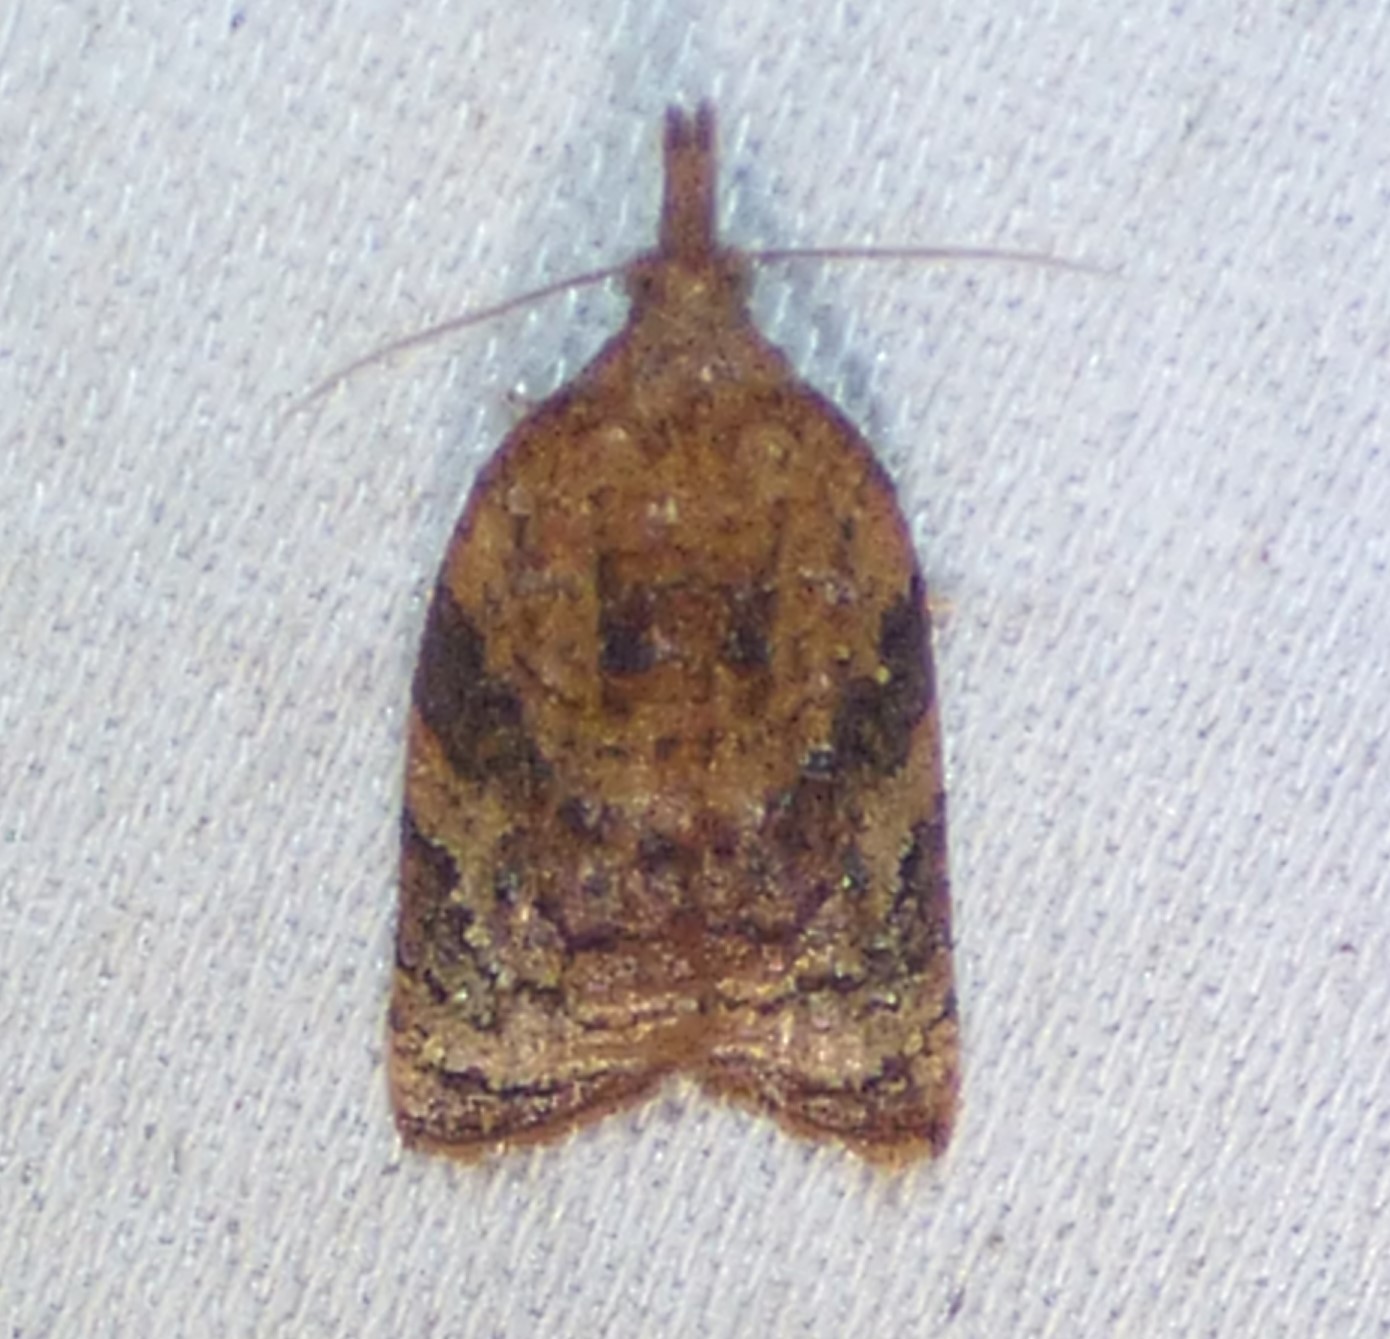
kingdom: Animalia
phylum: Arthropoda
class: Insecta
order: Lepidoptera
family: Tortricidae
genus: Platynota
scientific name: Platynota flavedana
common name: Black-shaded platynota moth
